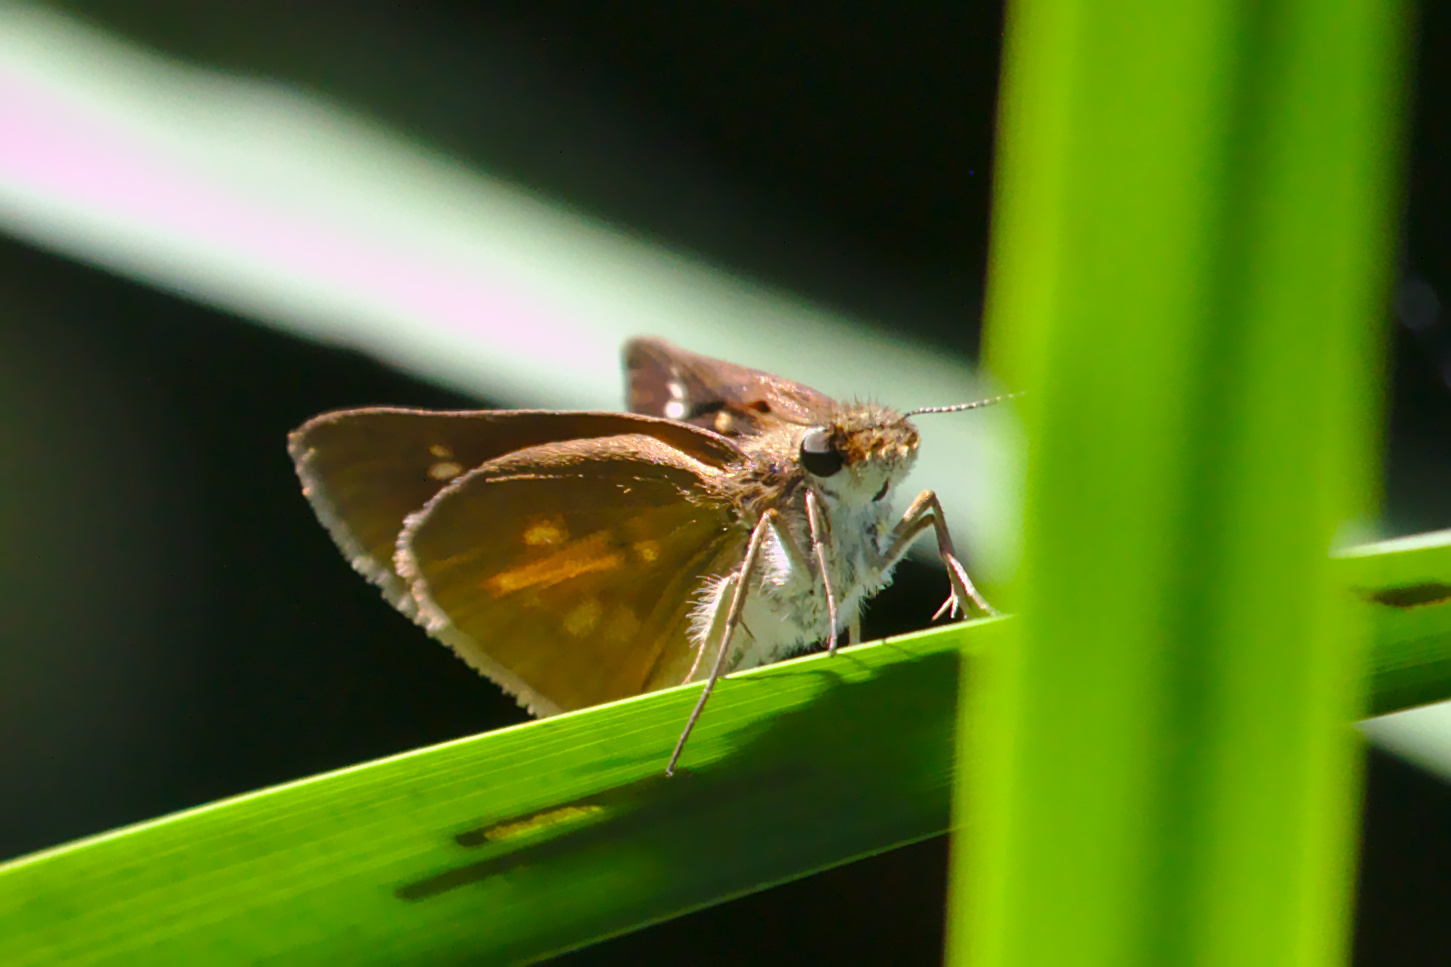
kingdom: Animalia
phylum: Arthropoda
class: Insecta
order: Lepidoptera
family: Hesperiidae
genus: Poanes
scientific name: Poanes viator
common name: Broad-winged skipper
